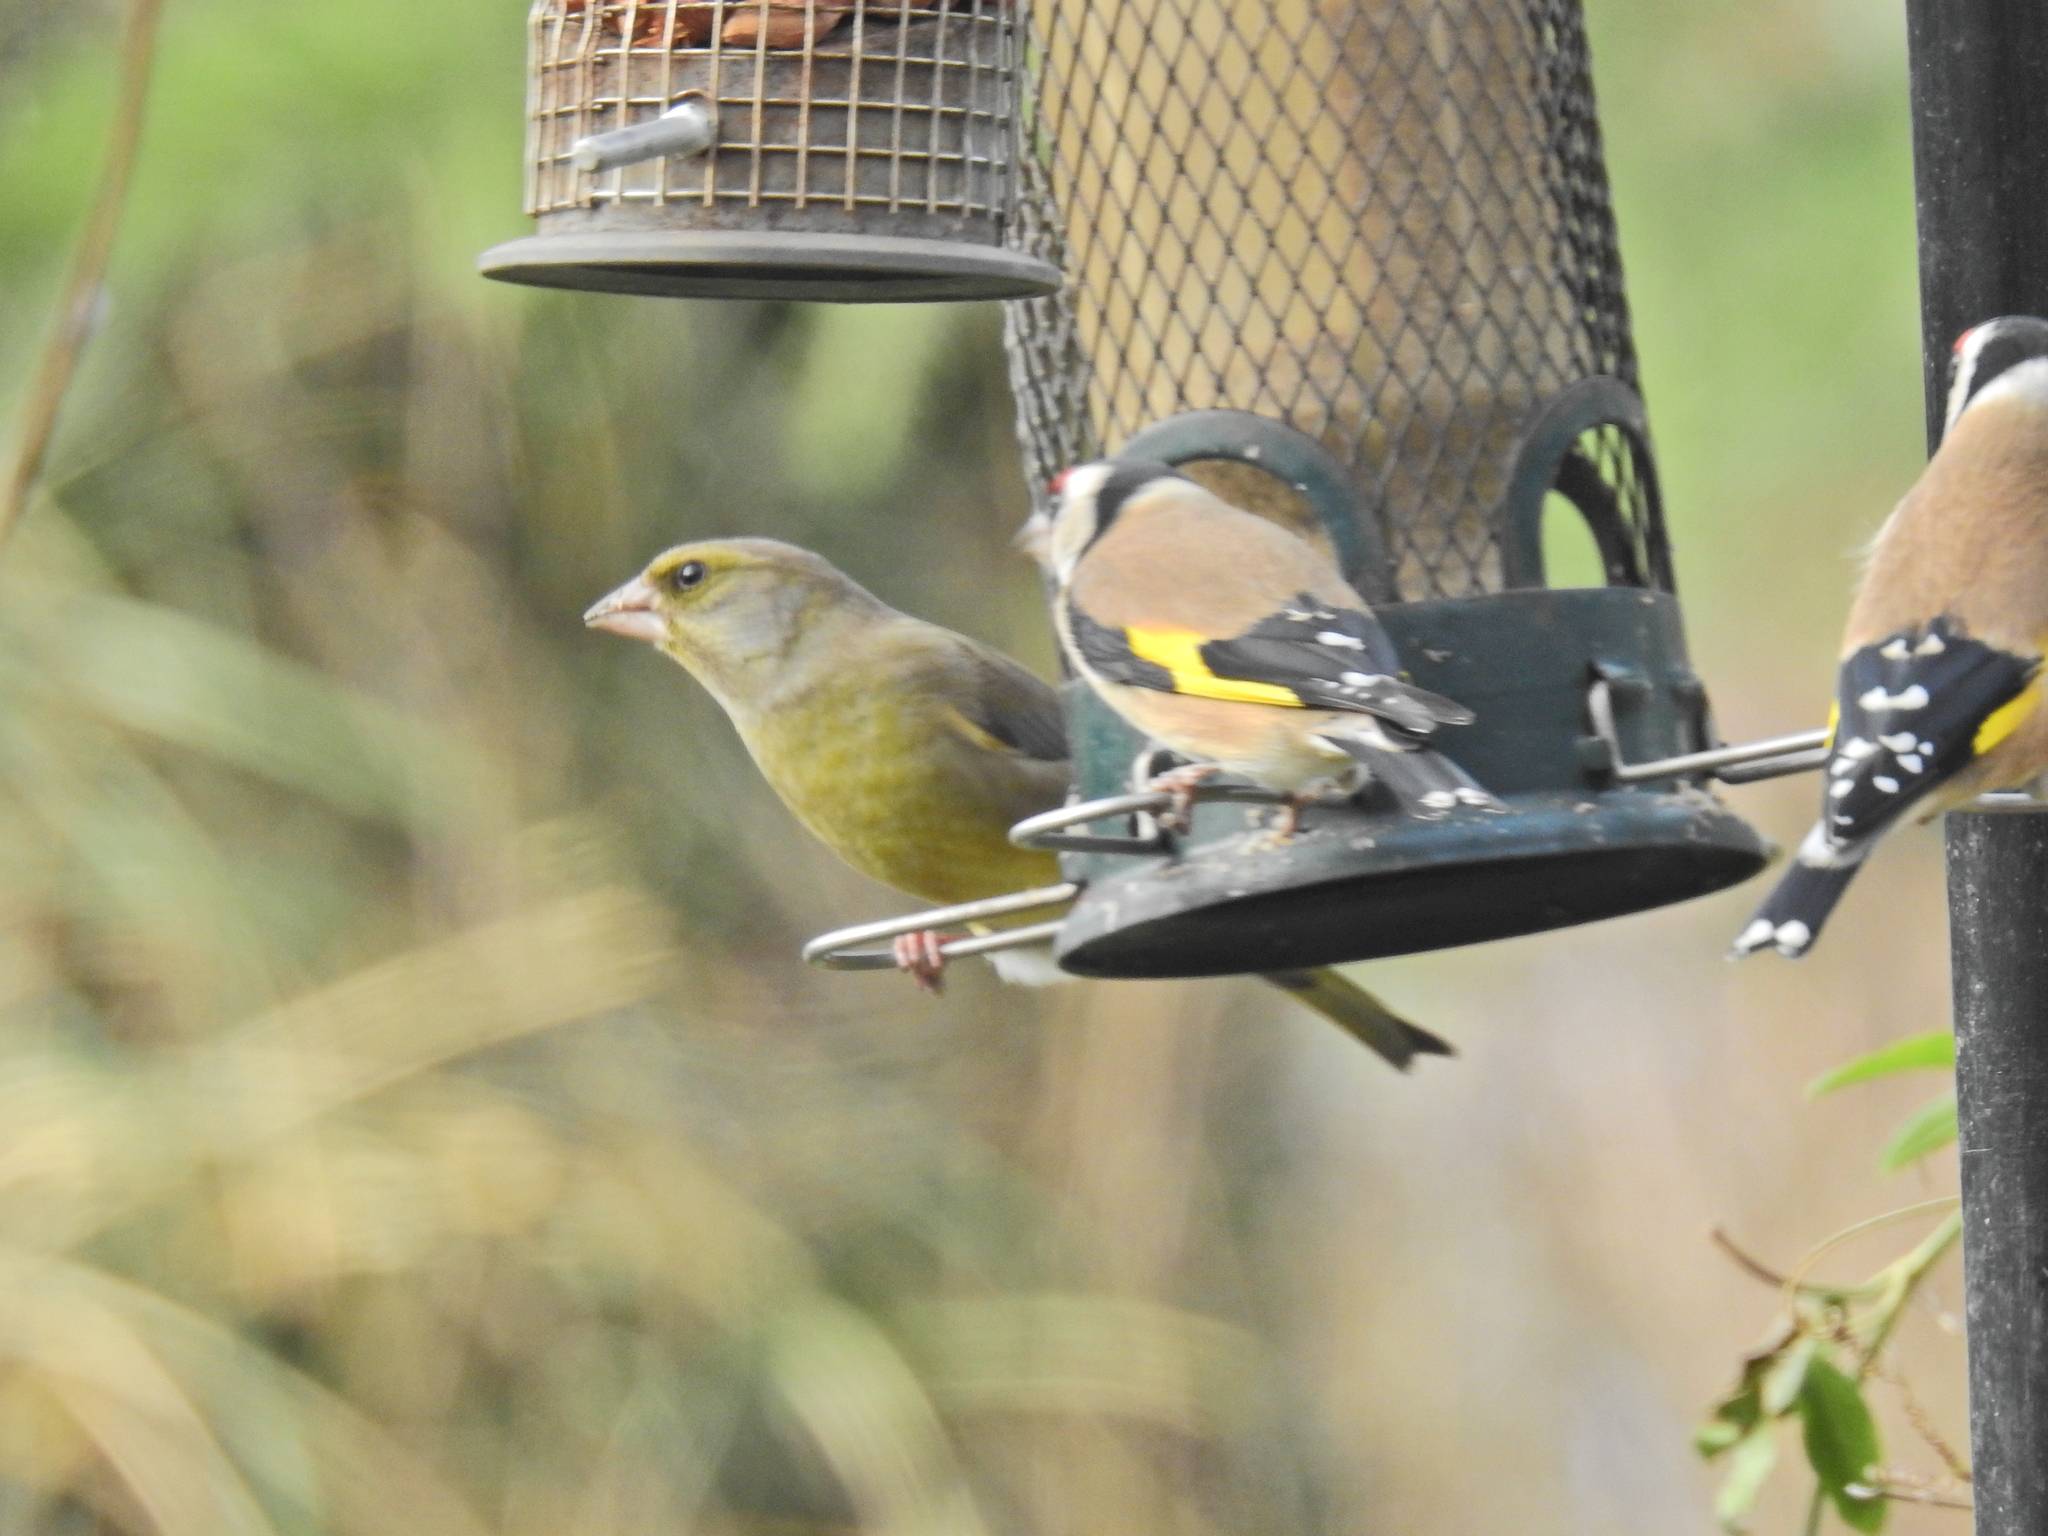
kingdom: Plantae
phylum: Tracheophyta
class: Liliopsida
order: Poales
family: Poaceae
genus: Chloris
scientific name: Chloris chloris
